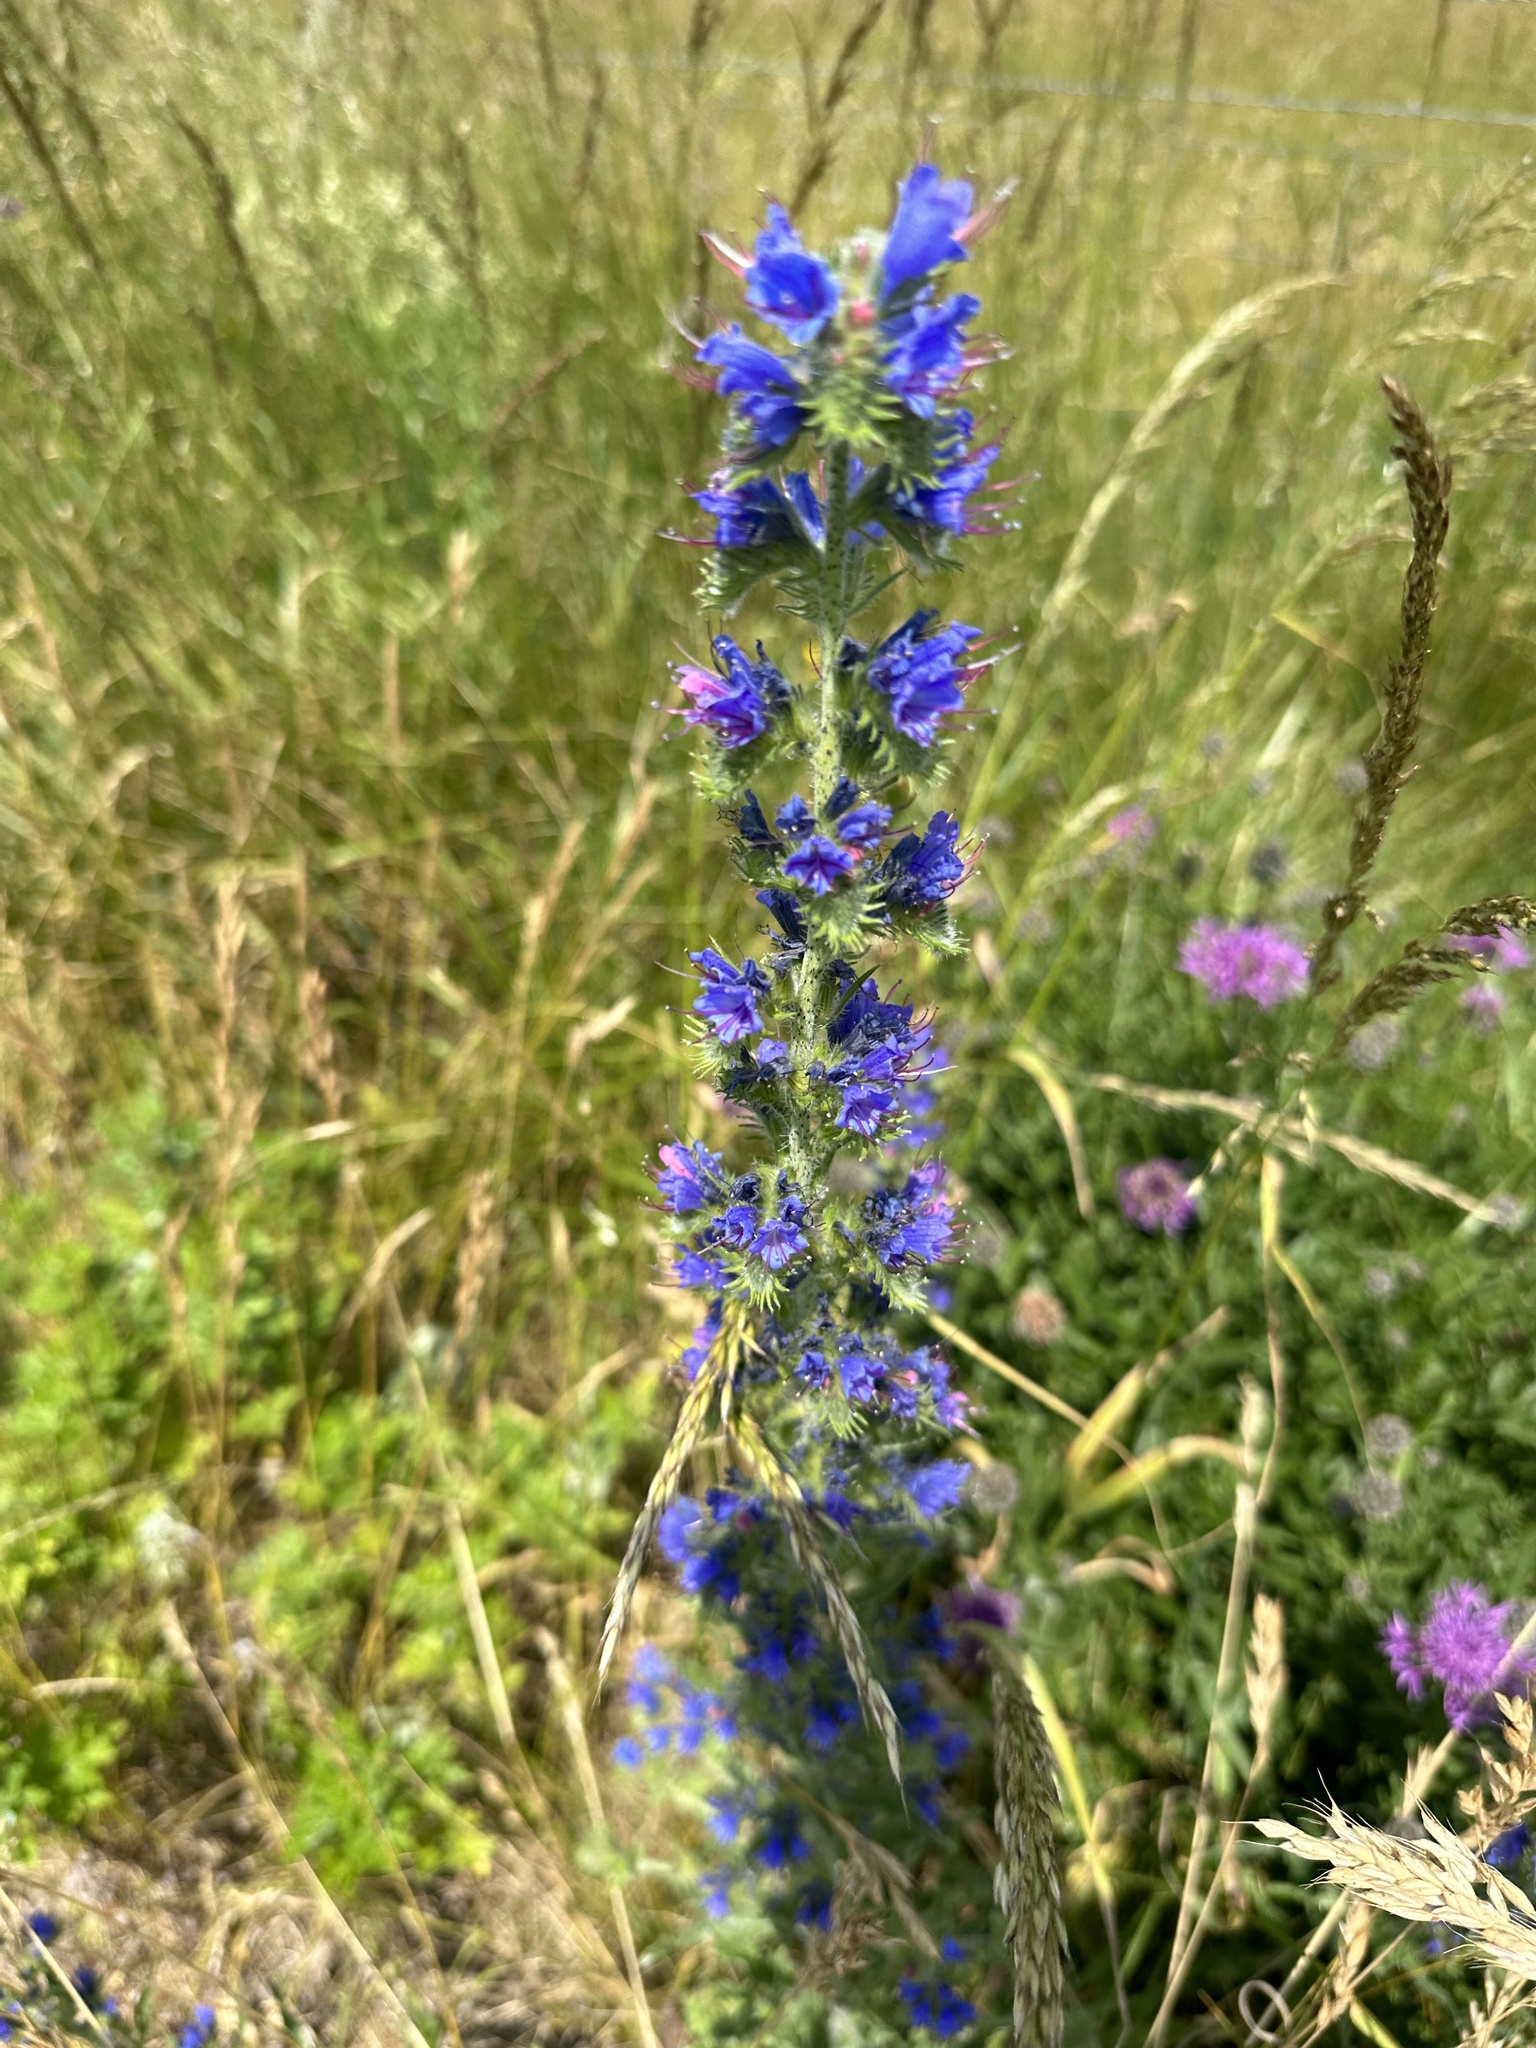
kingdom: Plantae
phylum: Tracheophyta
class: Magnoliopsida
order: Boraginales
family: Boraginaceae
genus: Echium
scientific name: Echium vulgare
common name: Common viper's bugloss
